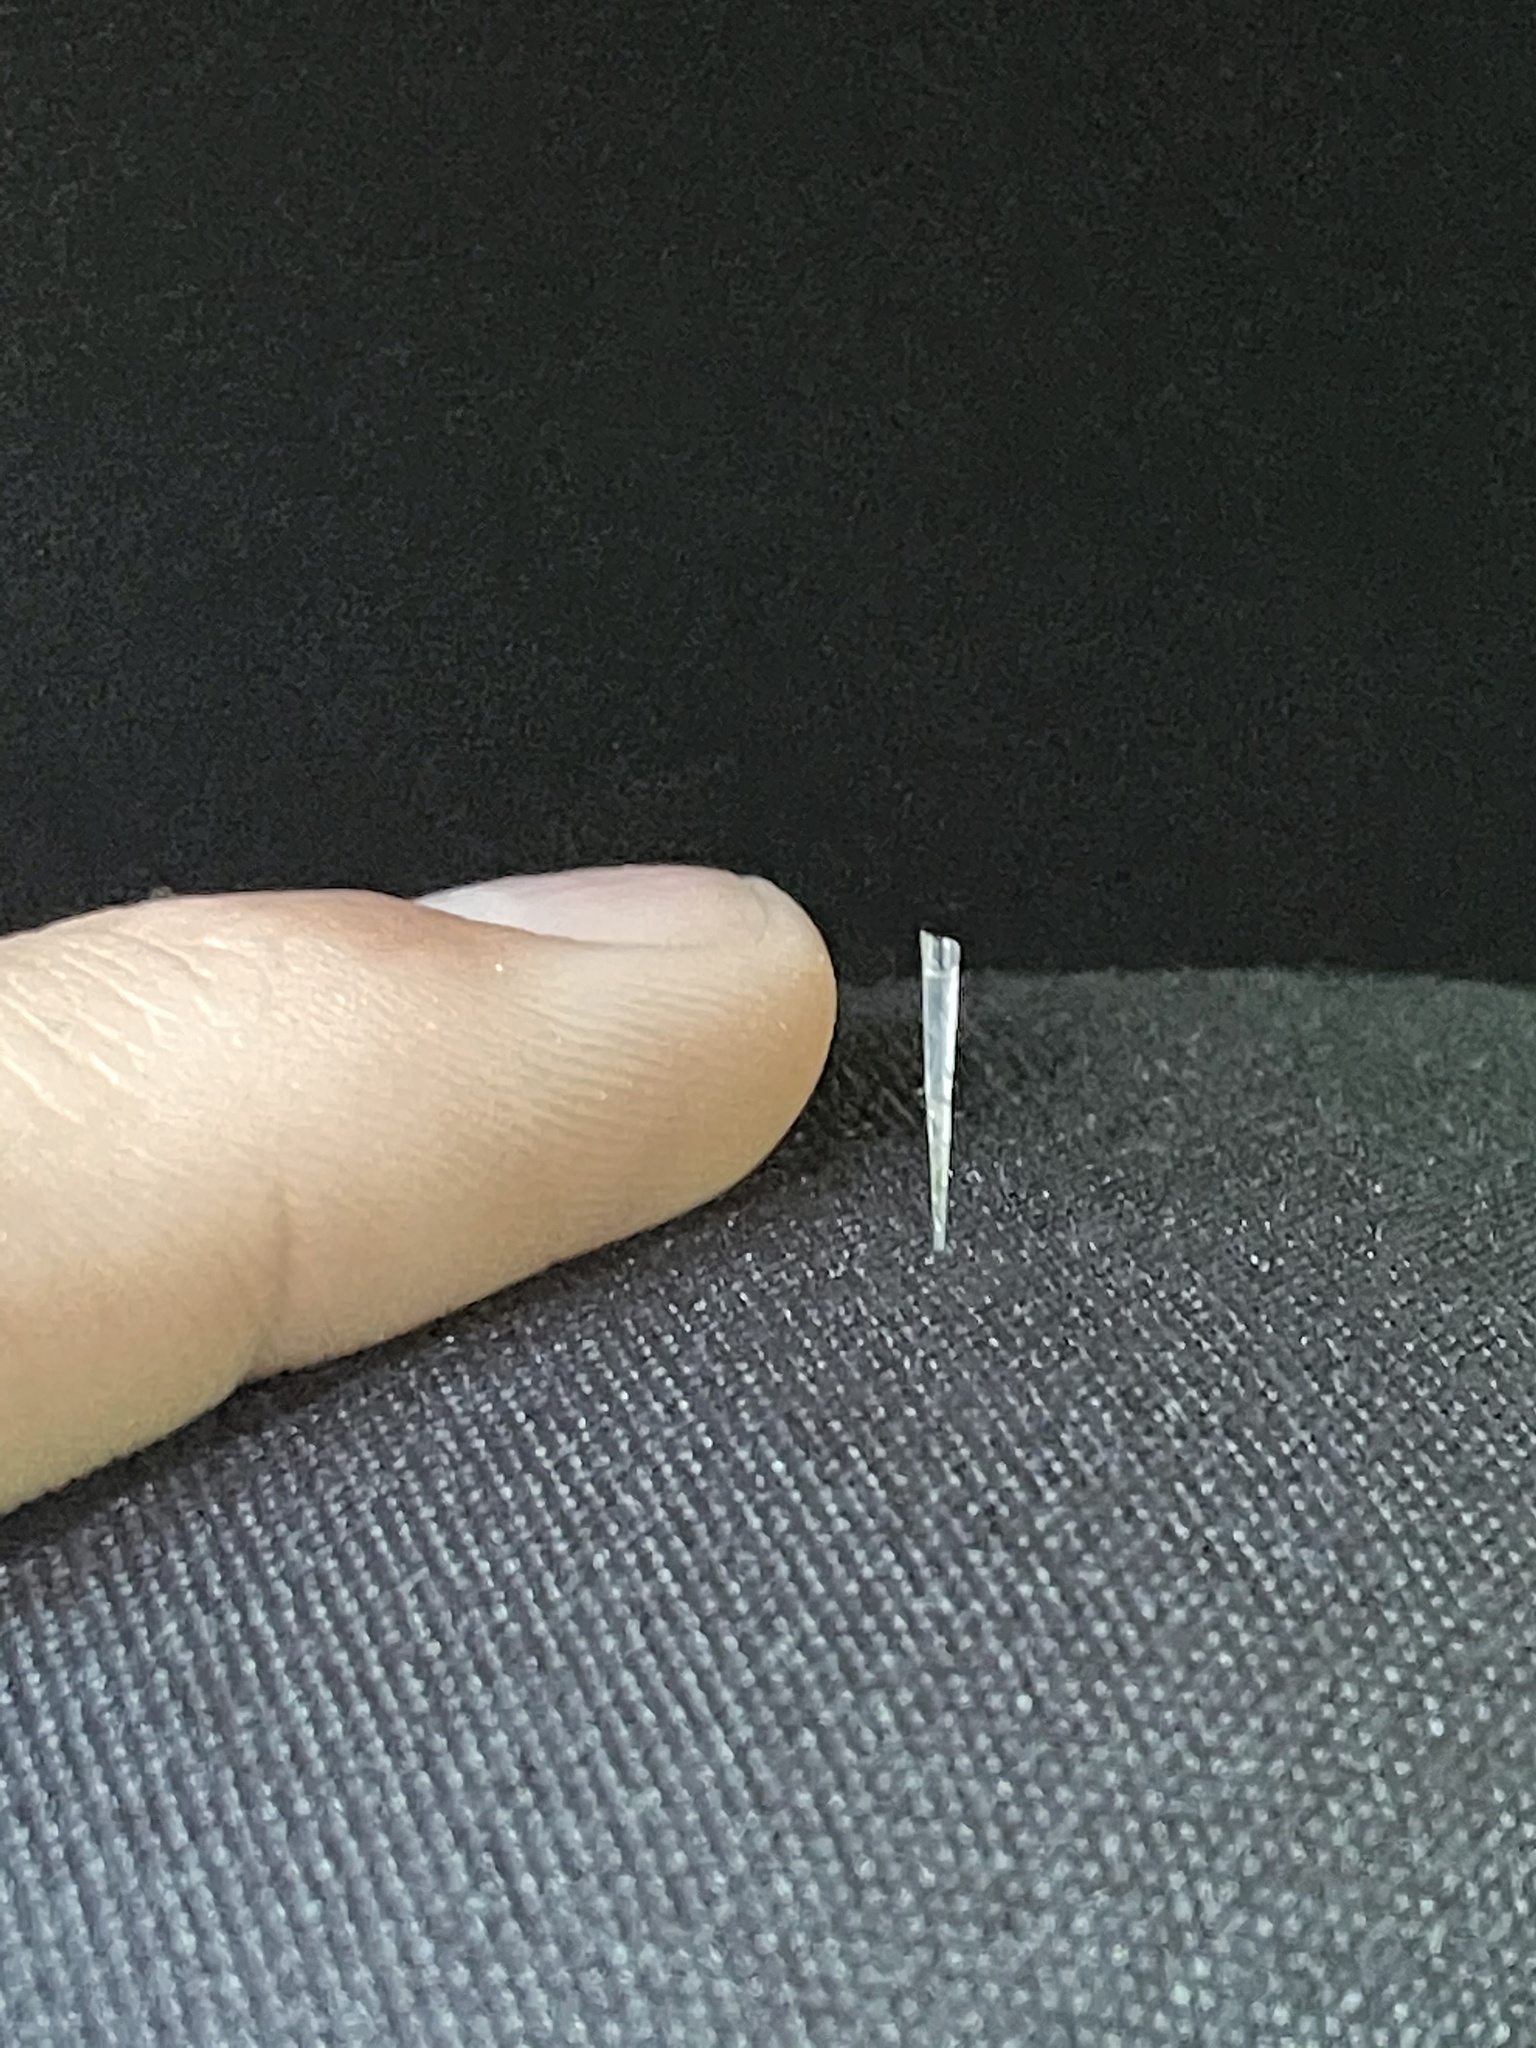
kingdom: Animalia
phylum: Mollusca
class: Gastropoda
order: Pteropoda
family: Creseidae
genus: Creseis
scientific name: Creseis acicula
